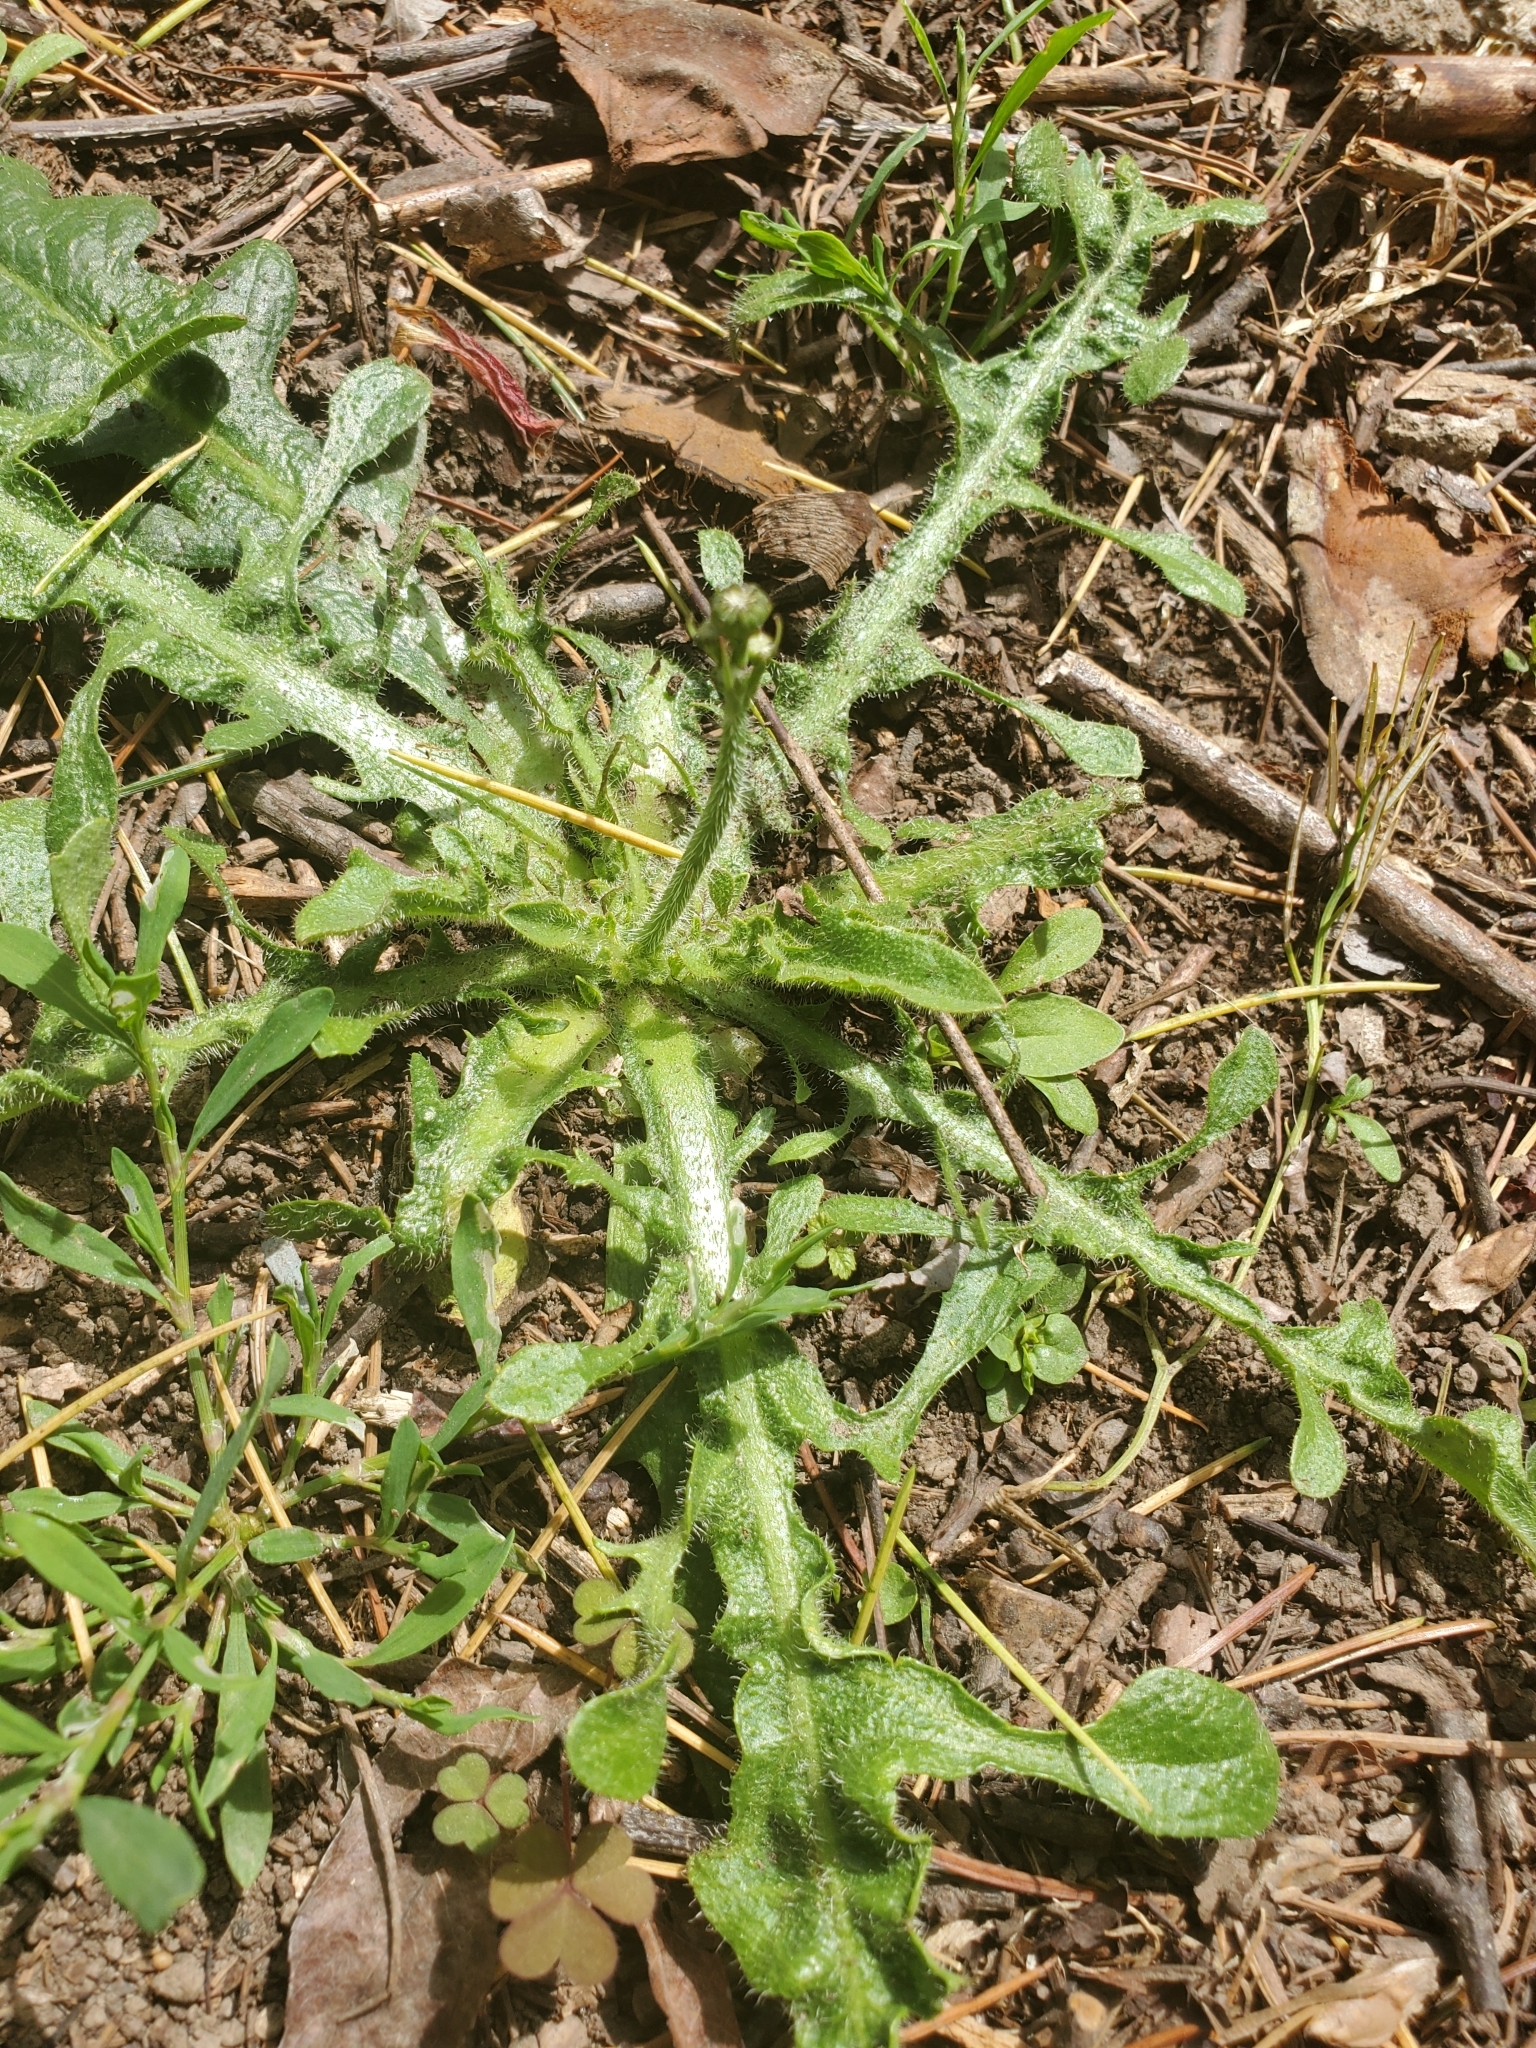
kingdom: Plantae
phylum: Tracheophyta
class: Magnoliopsida
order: Asterales
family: Asteraceae
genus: Hypochaeris
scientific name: Hypochaeris radicata
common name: Flatweed
